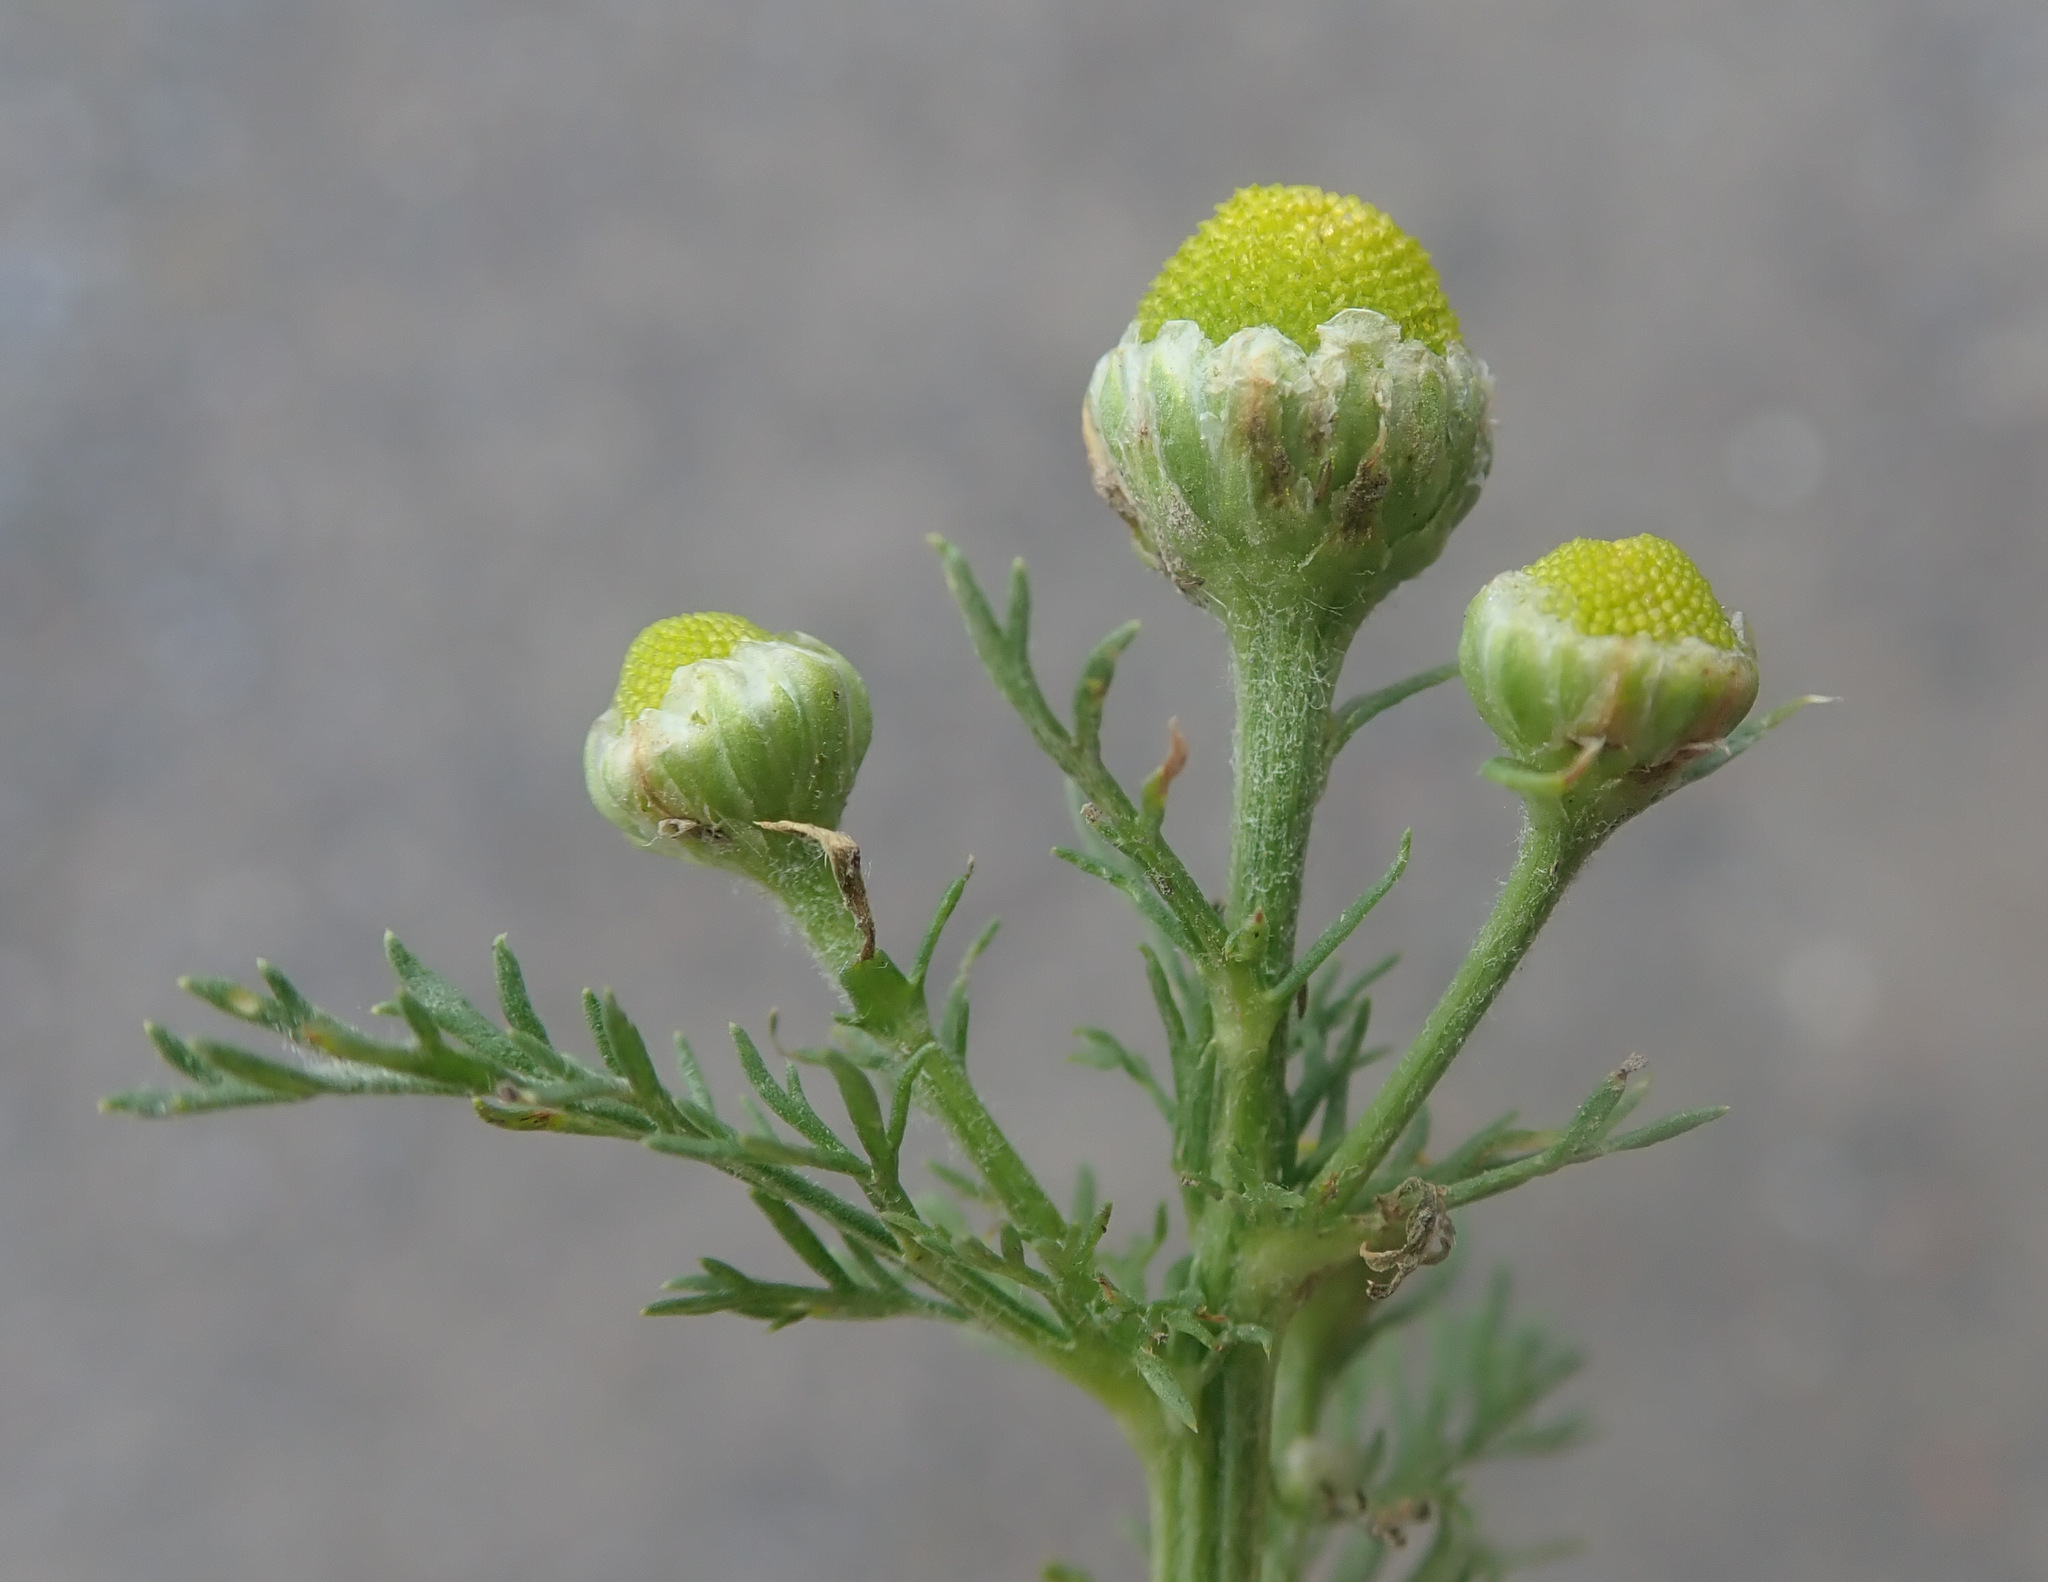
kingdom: Plantae
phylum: Tracheophyta
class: Magnoliopsida
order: Asterales
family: Asteraceae
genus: Matricaria
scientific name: Matricaria discoidea
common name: Disc mayweed
